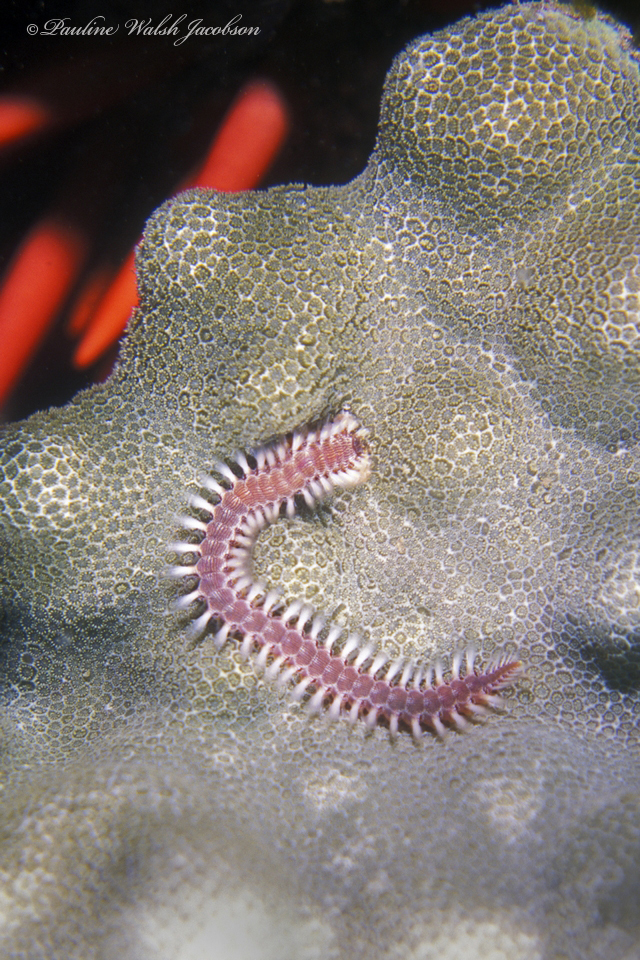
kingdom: Animalia
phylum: Annelida
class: Polychaeta
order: Amphinomida
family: Amphinomidae
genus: Pherecardia
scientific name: Pherecardia striata
